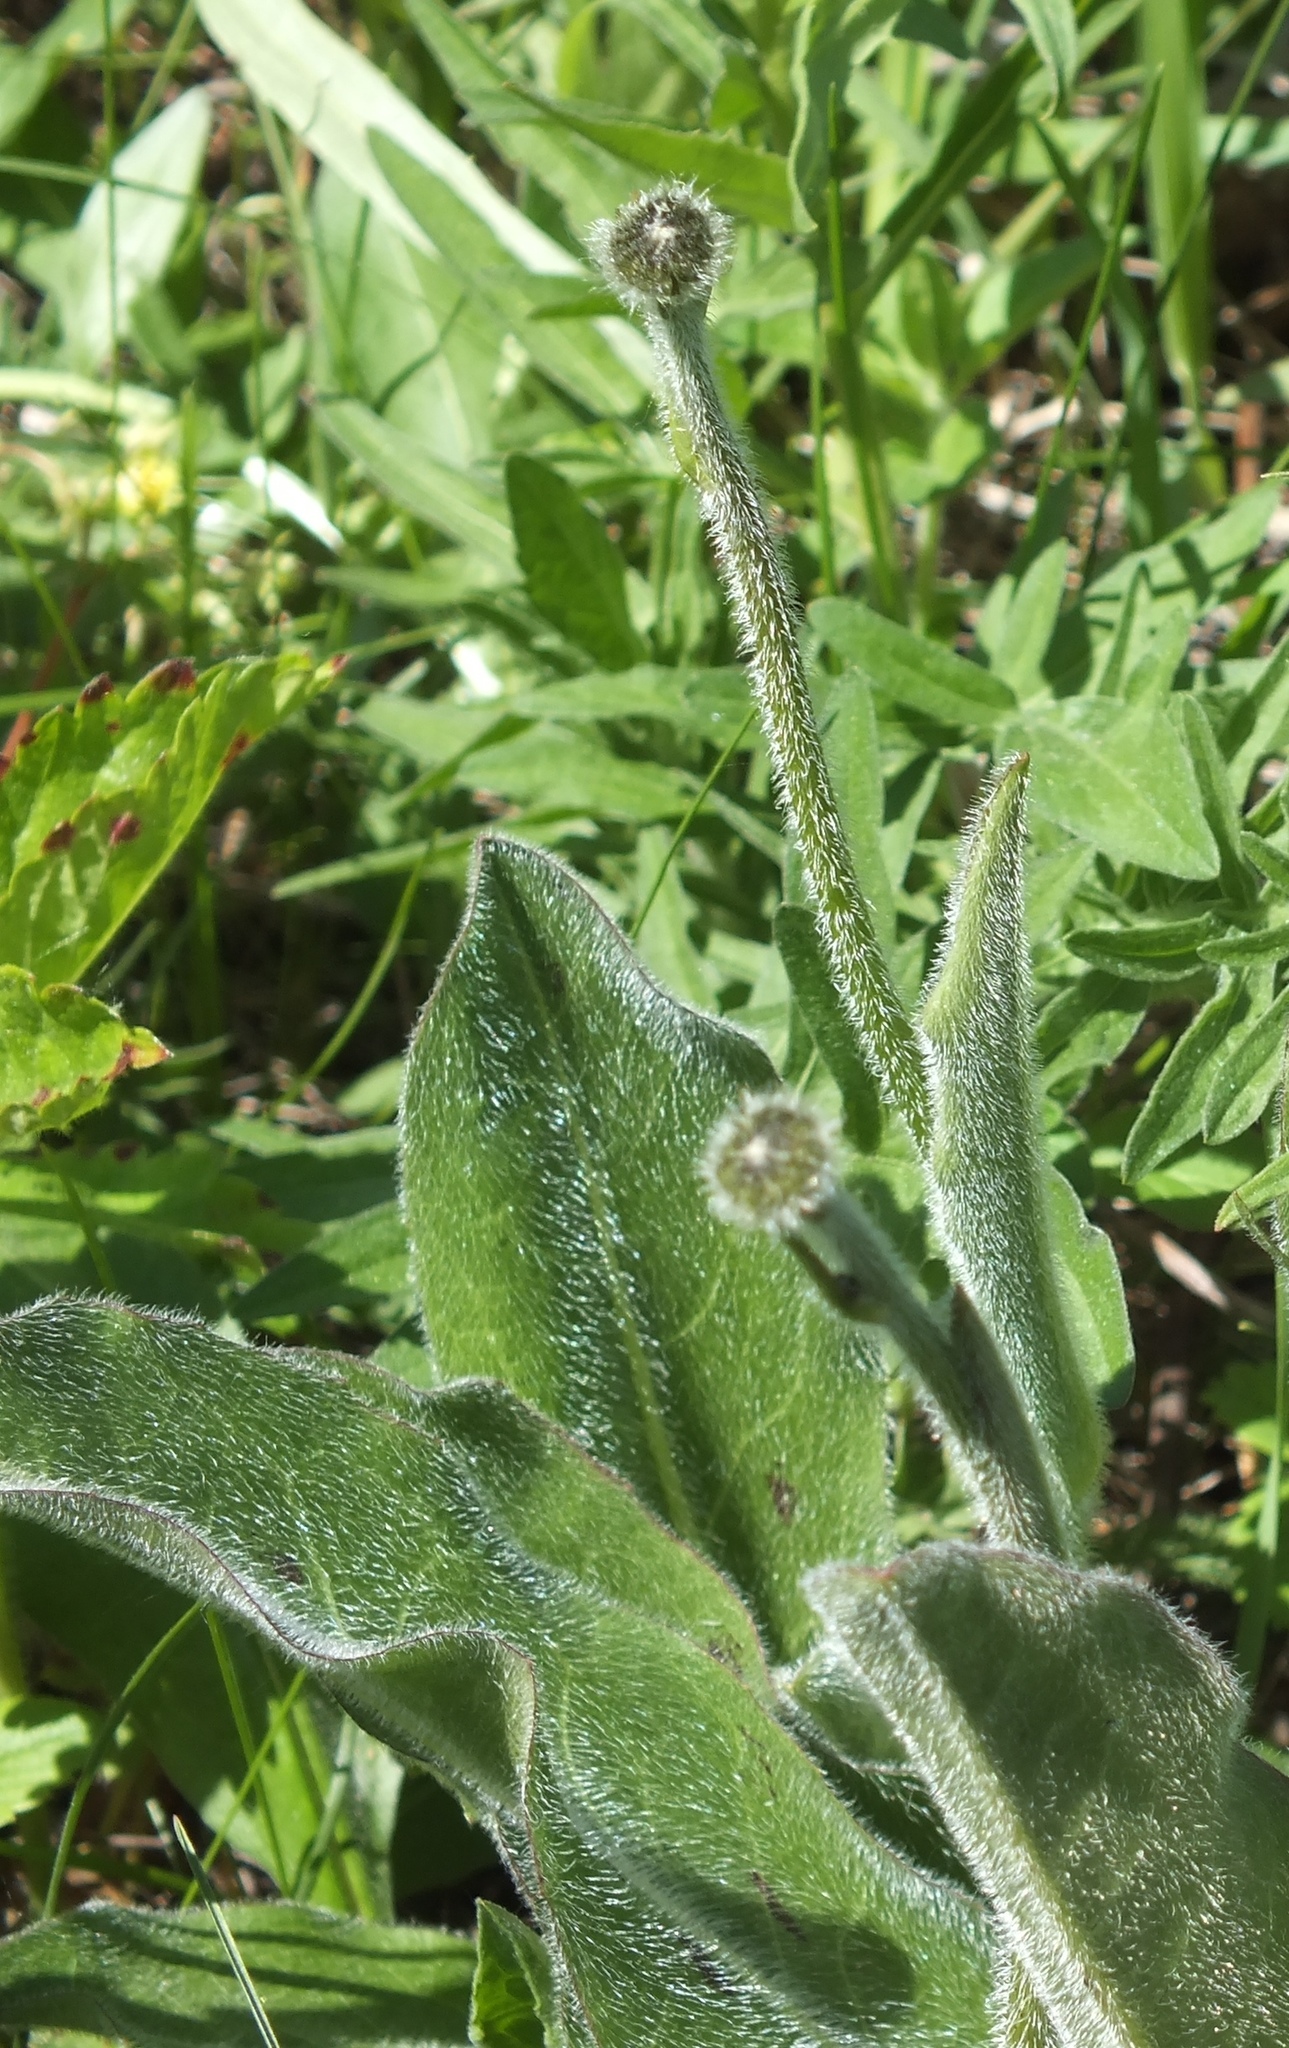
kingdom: Plantae
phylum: Tracheophyta
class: Magnoliopsida
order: Asterales
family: Asteraceae
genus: Trommsdorffia
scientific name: Trommsdorffia maculata
